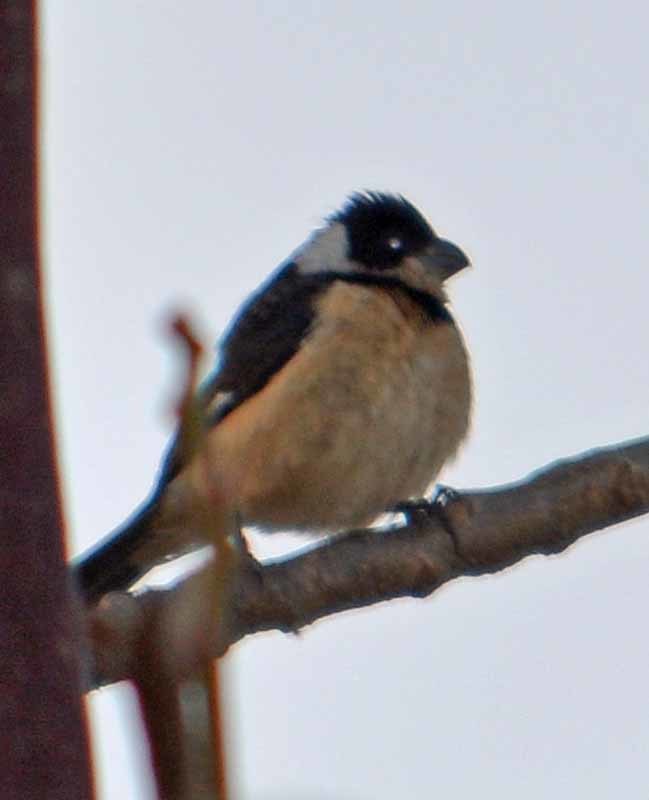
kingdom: Animalia
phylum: Chordata
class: Aves
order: Passeriformes
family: Thraupidae
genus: Sporophila
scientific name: Sporophila torqueola
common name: White-collared seedeater
